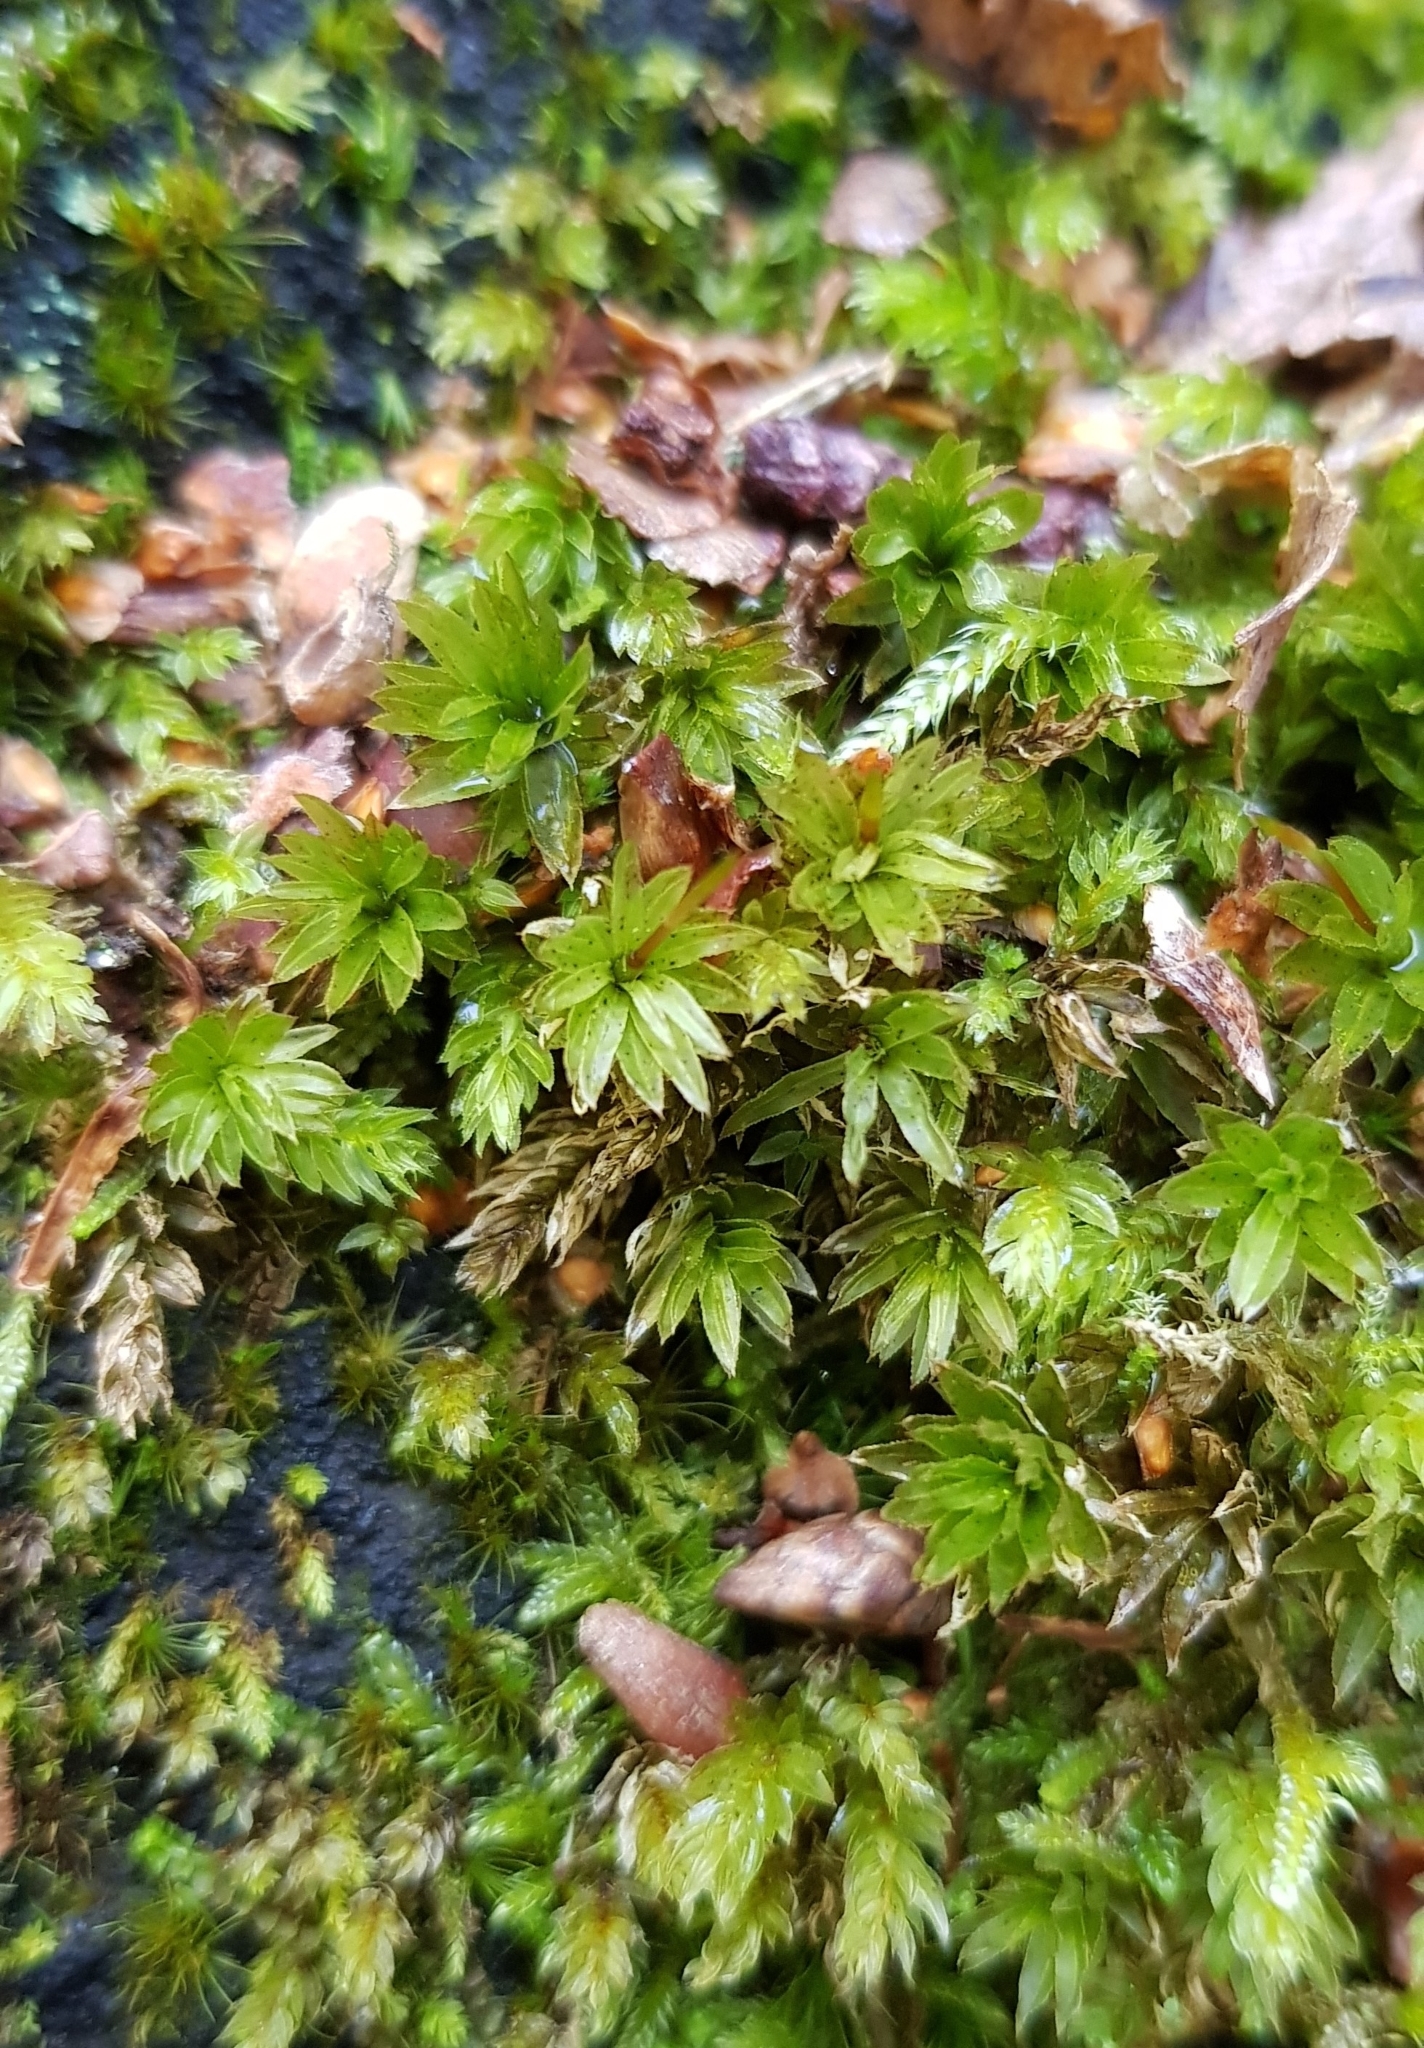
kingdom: Plantae
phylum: Bryophyta
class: Bryopsida
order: Bryales
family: Mniaceae
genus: Mnium
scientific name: Mnium hornum
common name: Swan's-neck leafy moss
